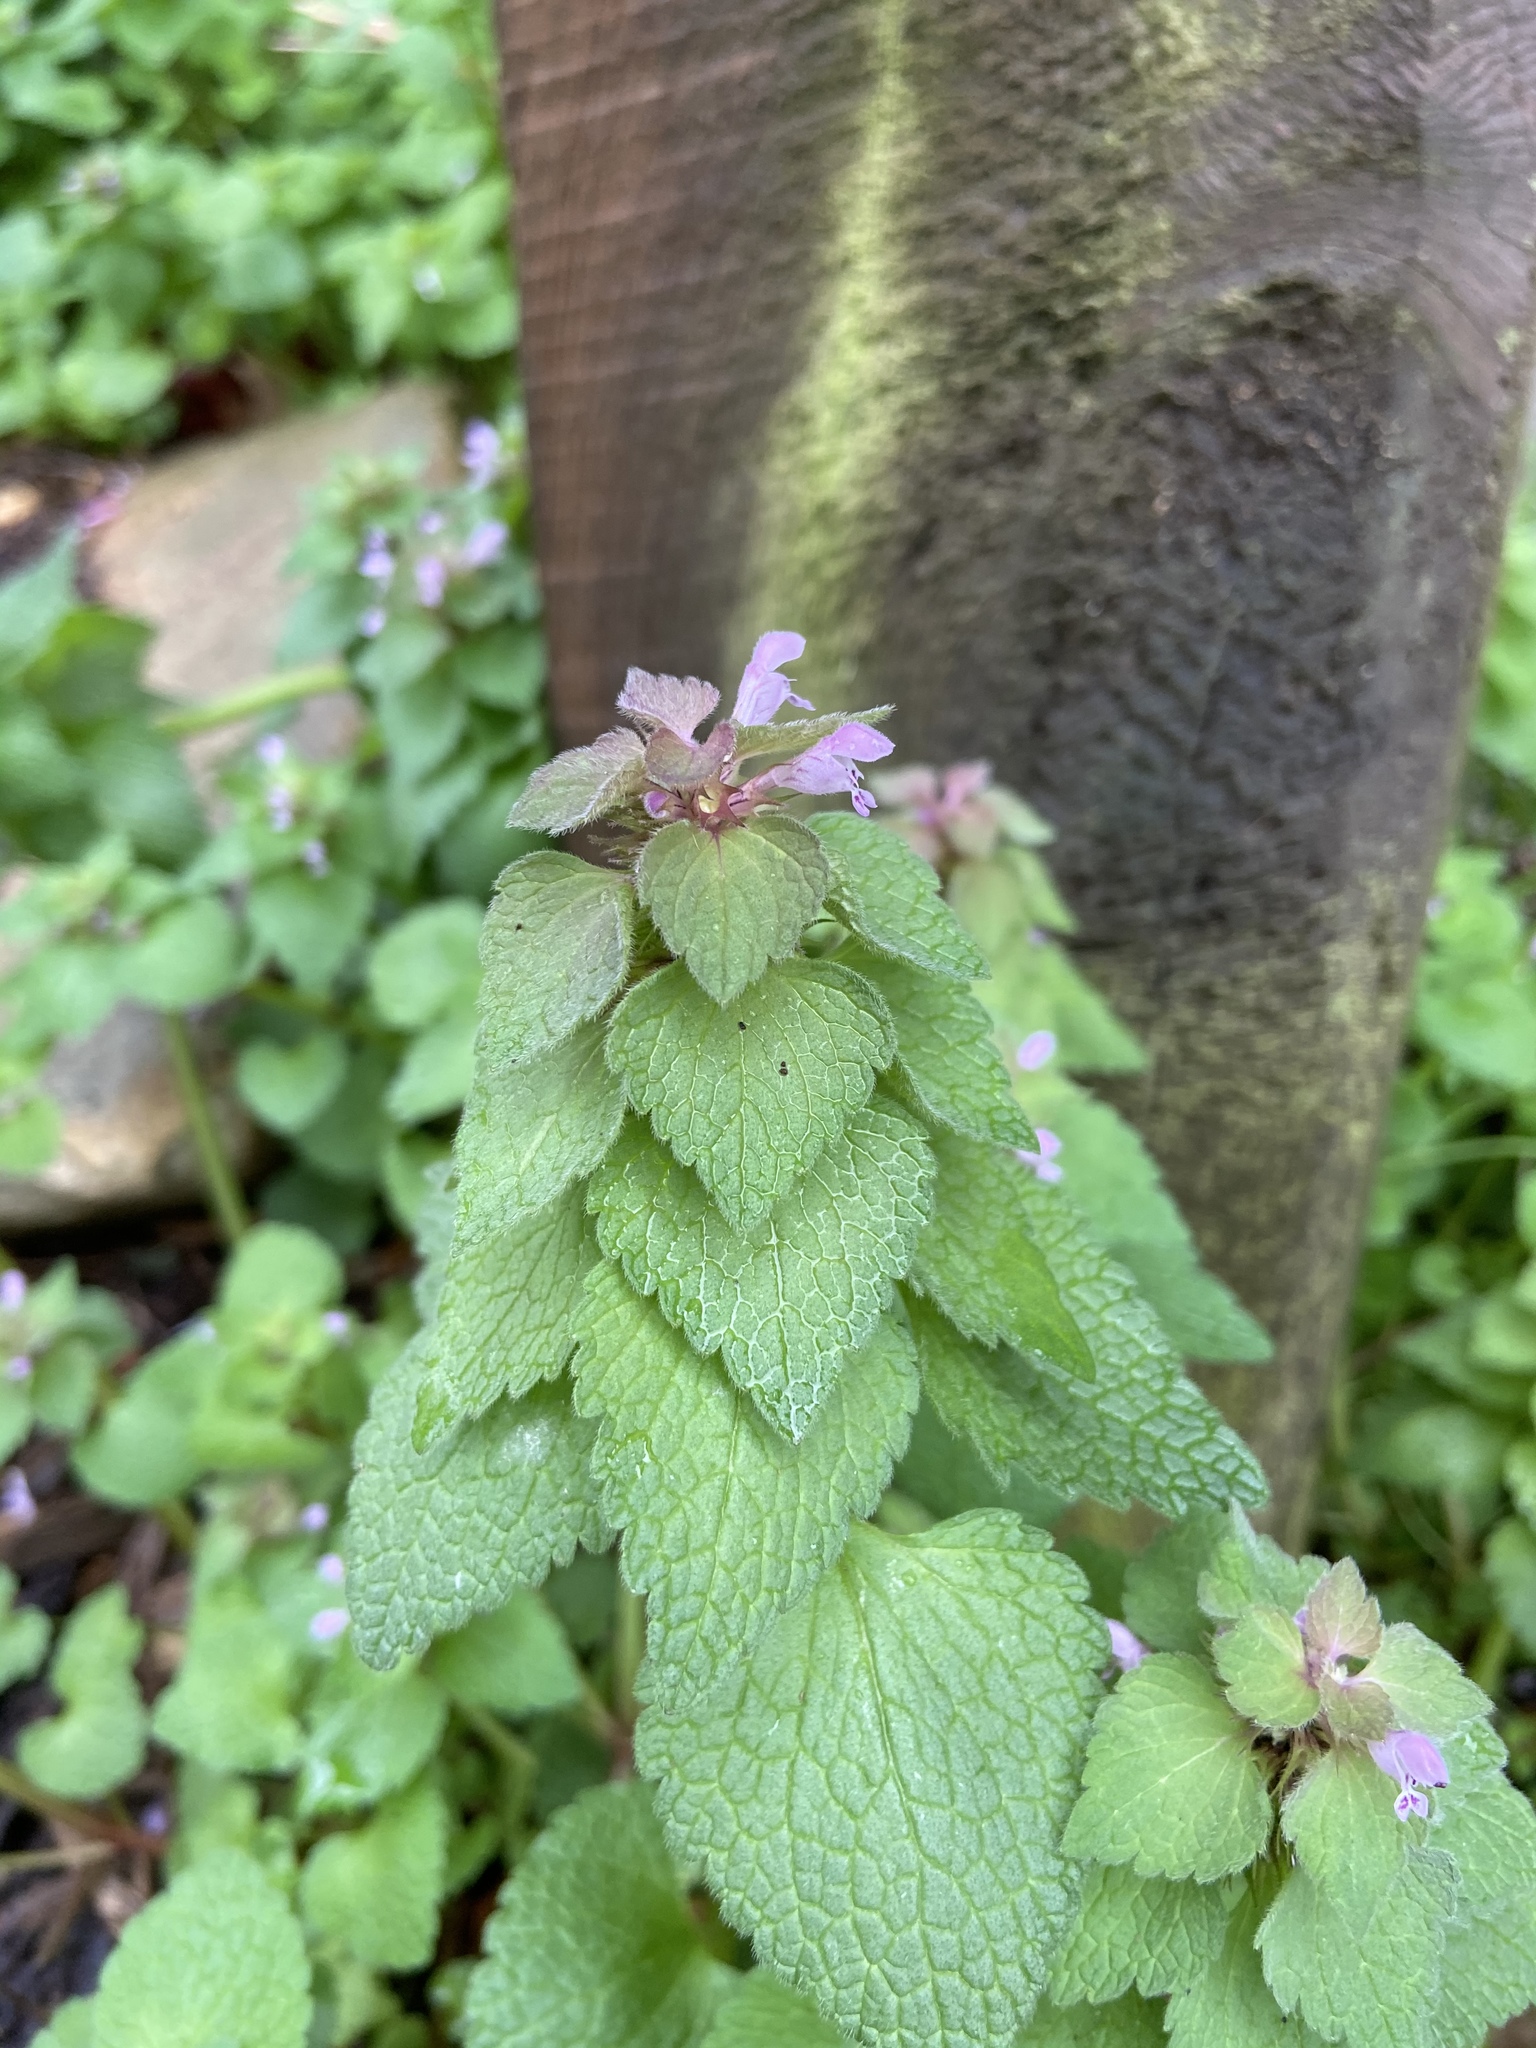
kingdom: Plantae
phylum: Tracheophyta
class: Magnoliopsida
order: Lamiales
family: Lamiaceae
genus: Lamium
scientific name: Lamium purpureum
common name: Red dead-nettle
